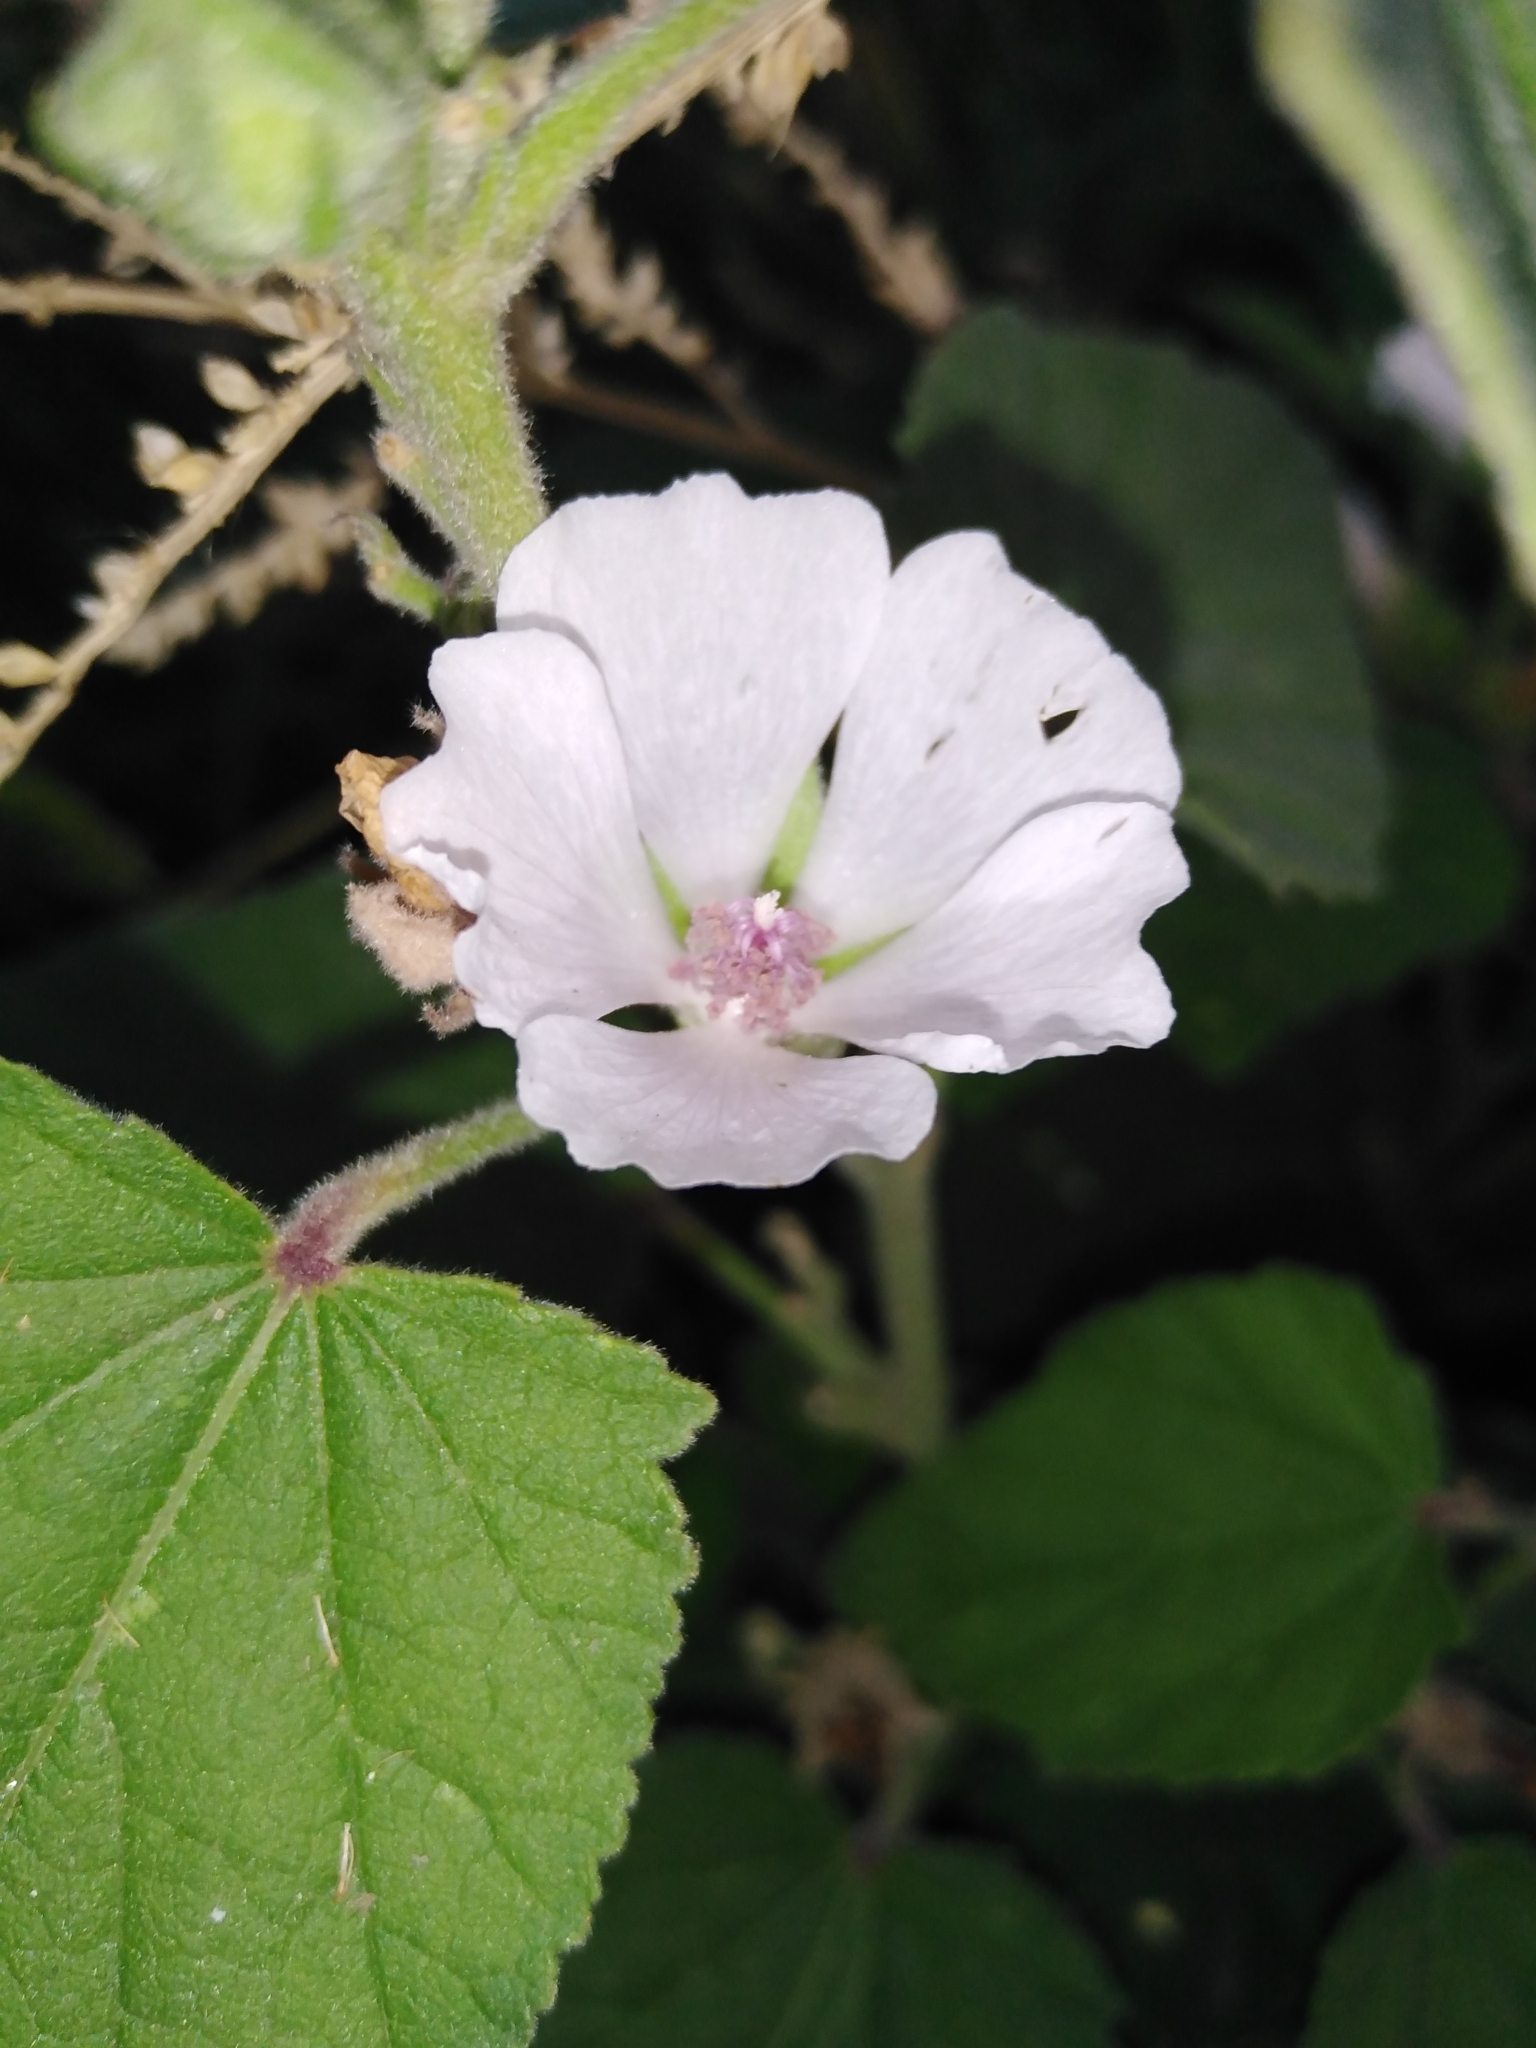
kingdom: Plantae
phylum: Tracheophyta
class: Magnoliopsida
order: Malvales
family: Malvaceae
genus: Althaea
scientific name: Althaea officinalis
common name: Marsh-mallow
